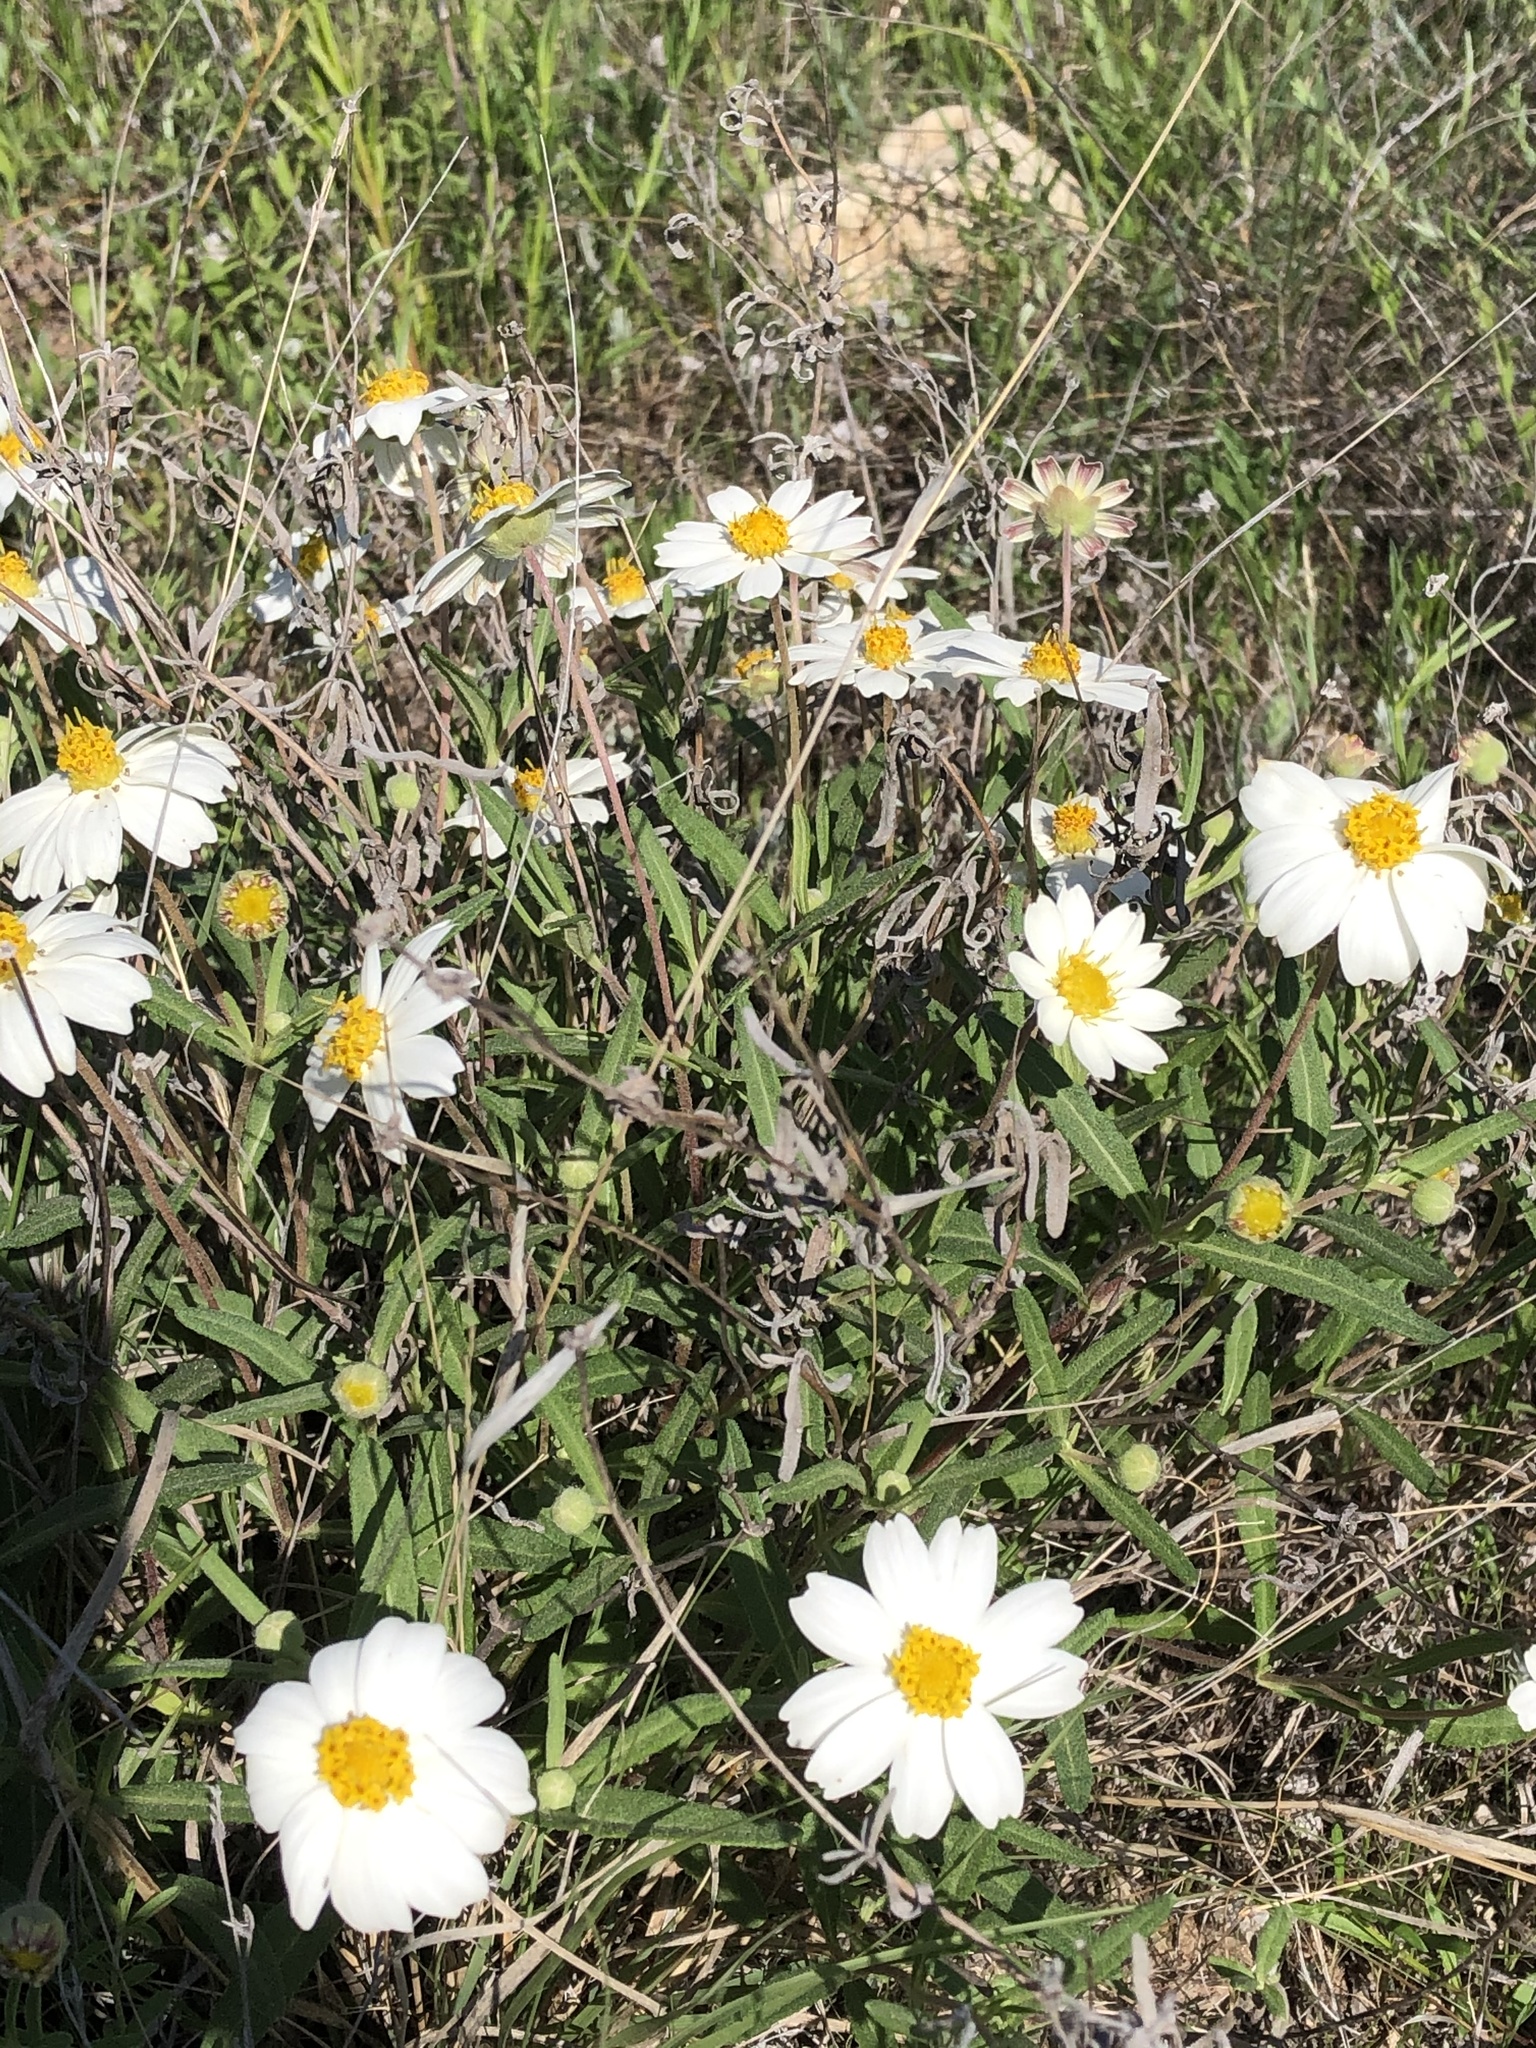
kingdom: Plantae
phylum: Tracheophyta
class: Magnoliopsida
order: Asterales
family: Asteraceae
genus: Melampodium
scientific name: Melampodium leucanthum
